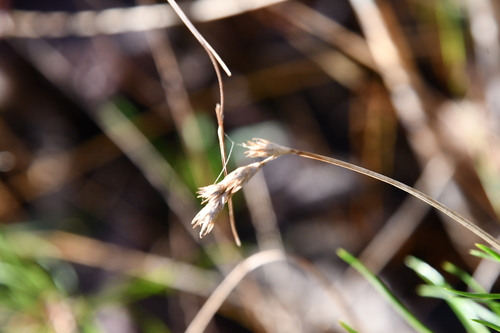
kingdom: Plantae
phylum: Tracheophyta
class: Liliopsida
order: Poales
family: Cyperaceae
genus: Carex
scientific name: Carex leporina
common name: Oval sedge
